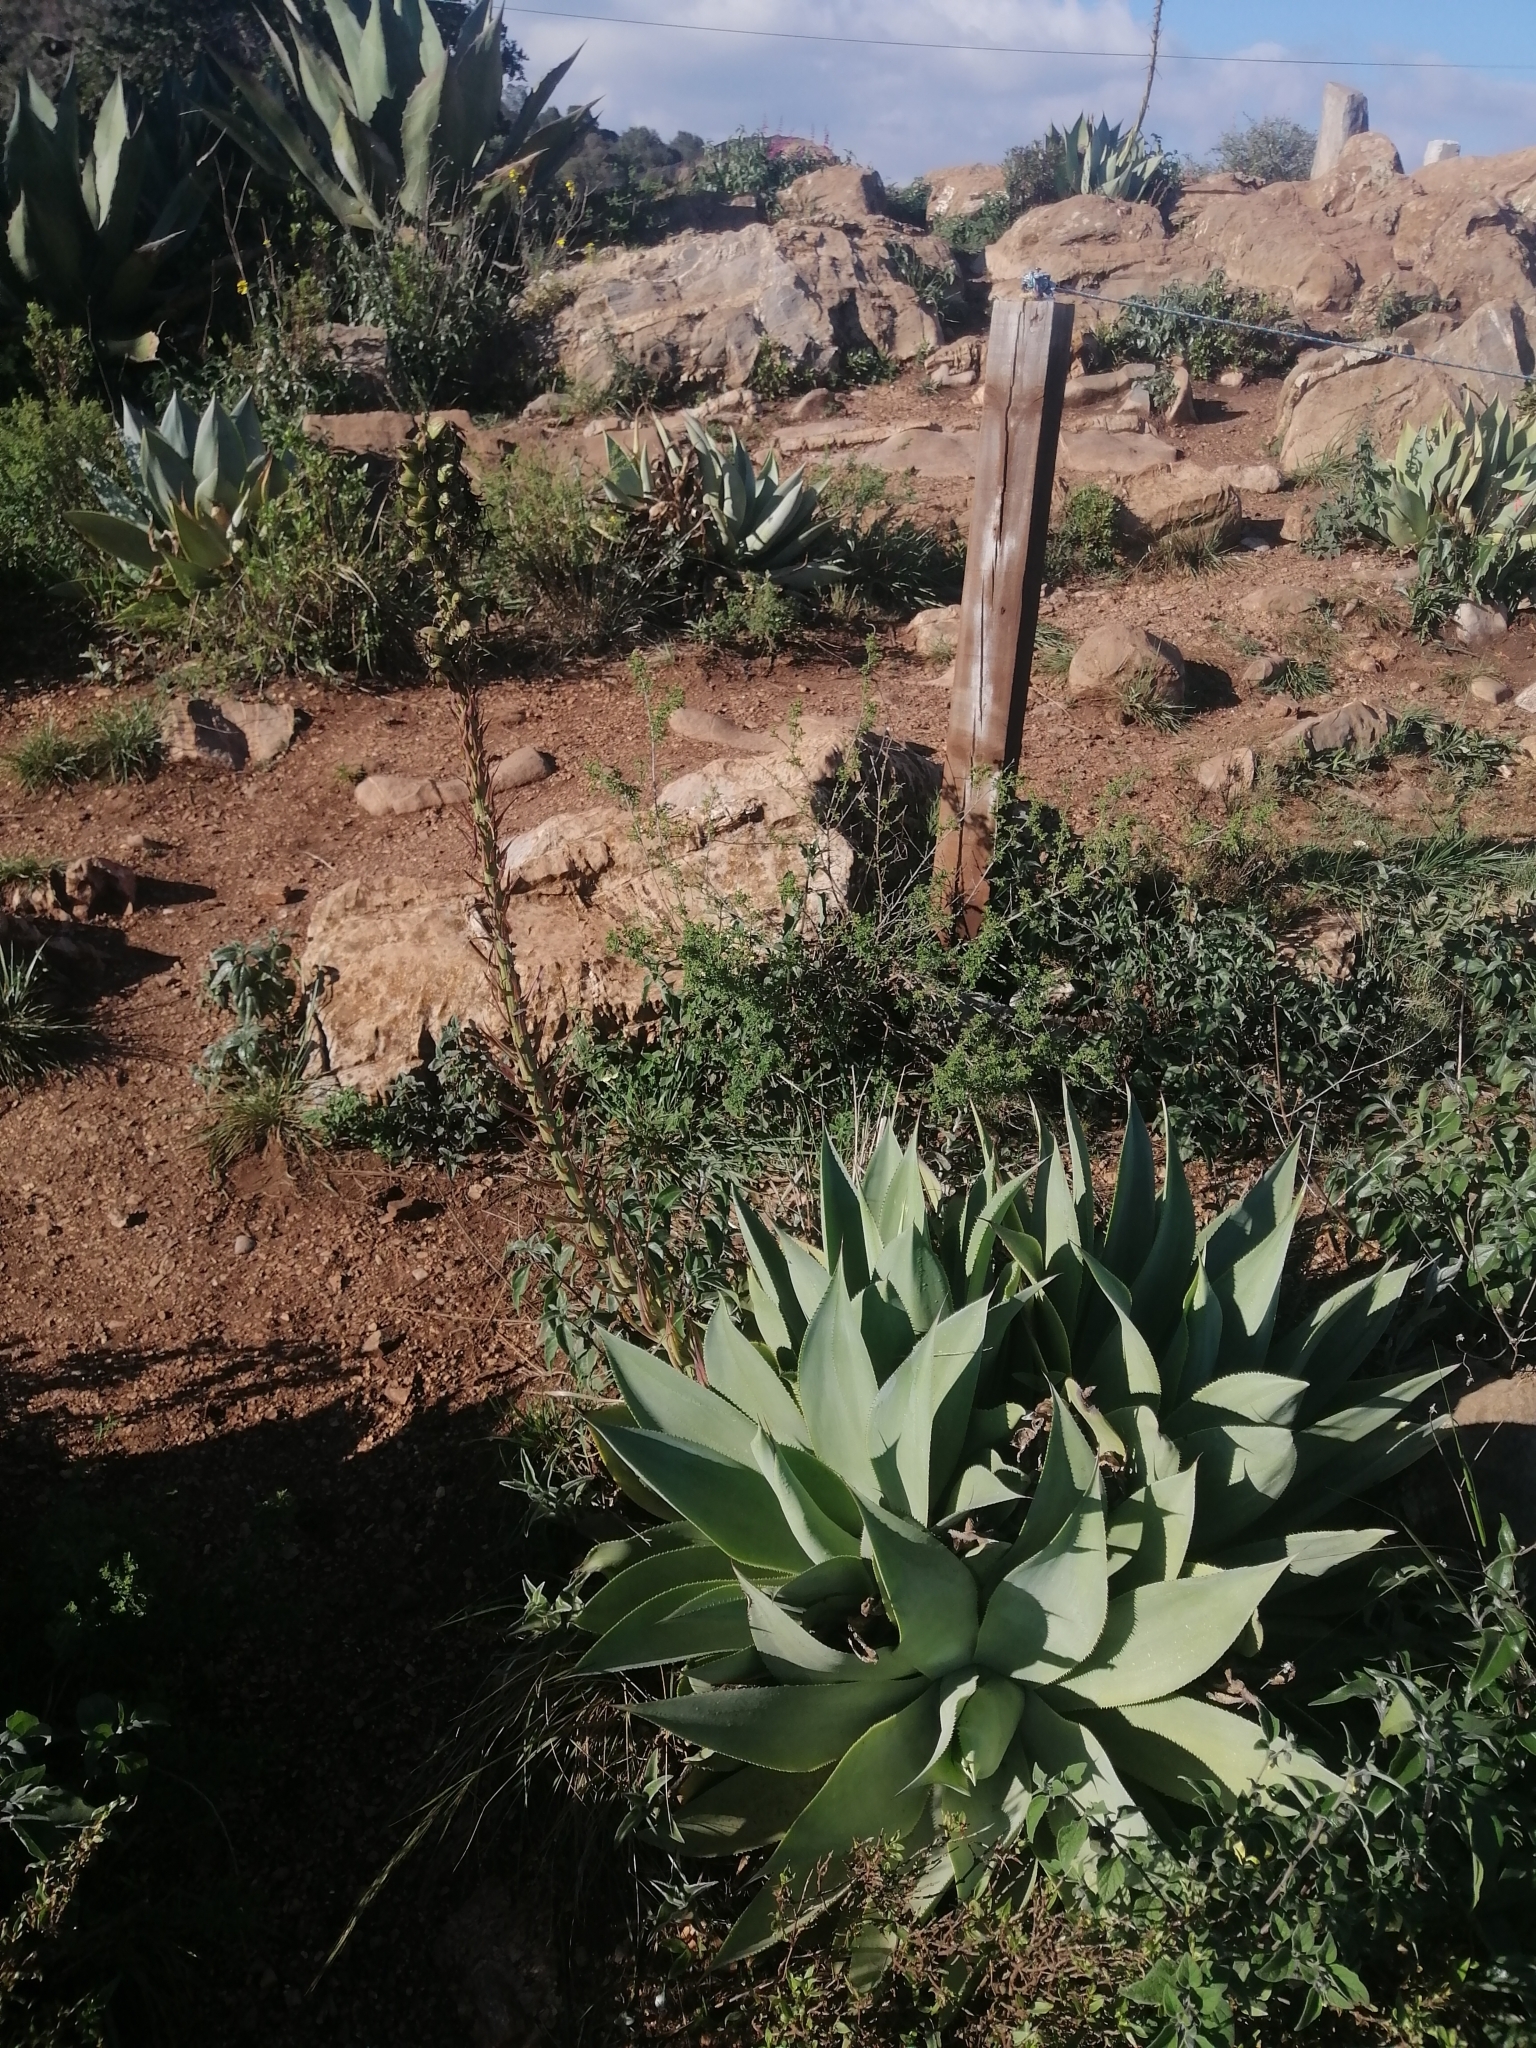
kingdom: Plantae
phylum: Tracheophyta
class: Liliopsida
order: Asparagales
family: Asparagaceae
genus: Agave
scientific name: Agave mitis
